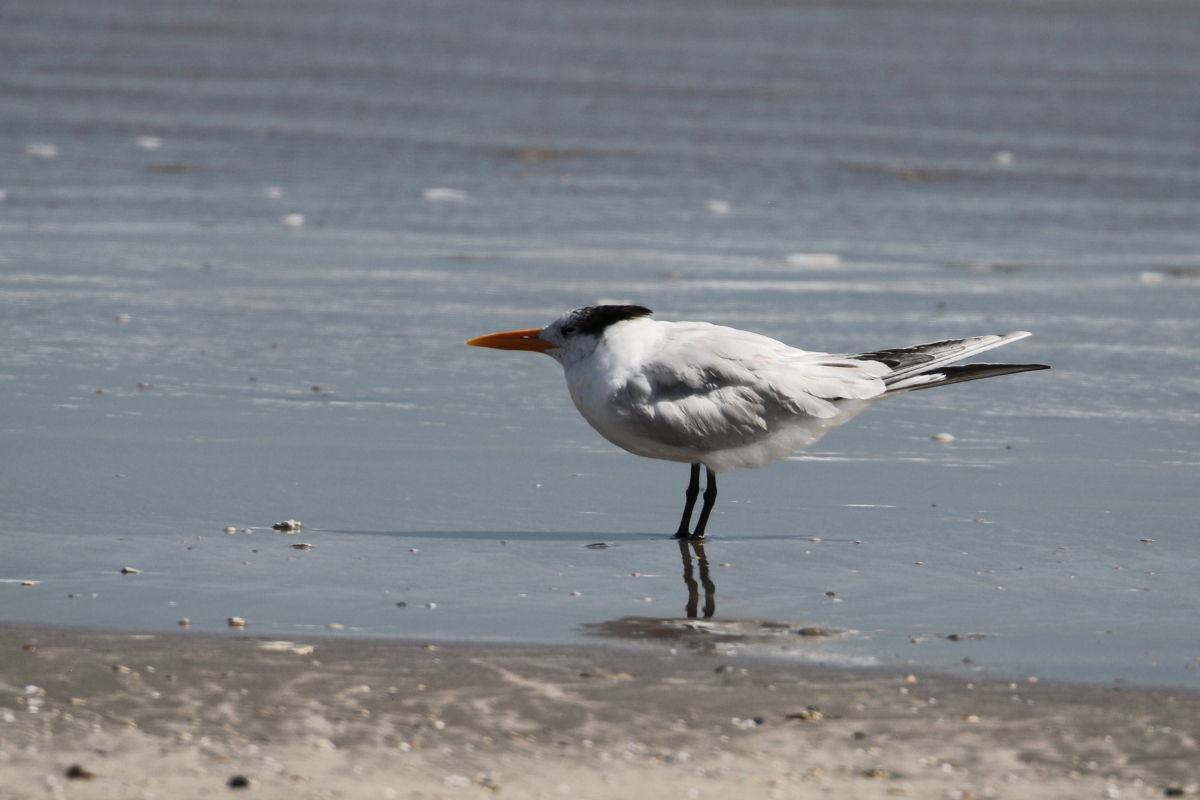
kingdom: Animalia
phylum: Chordata
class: Aves
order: Charadriiformes
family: Laridae
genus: Thalasseus
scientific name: Thalasseus maximus
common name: Royal tern
